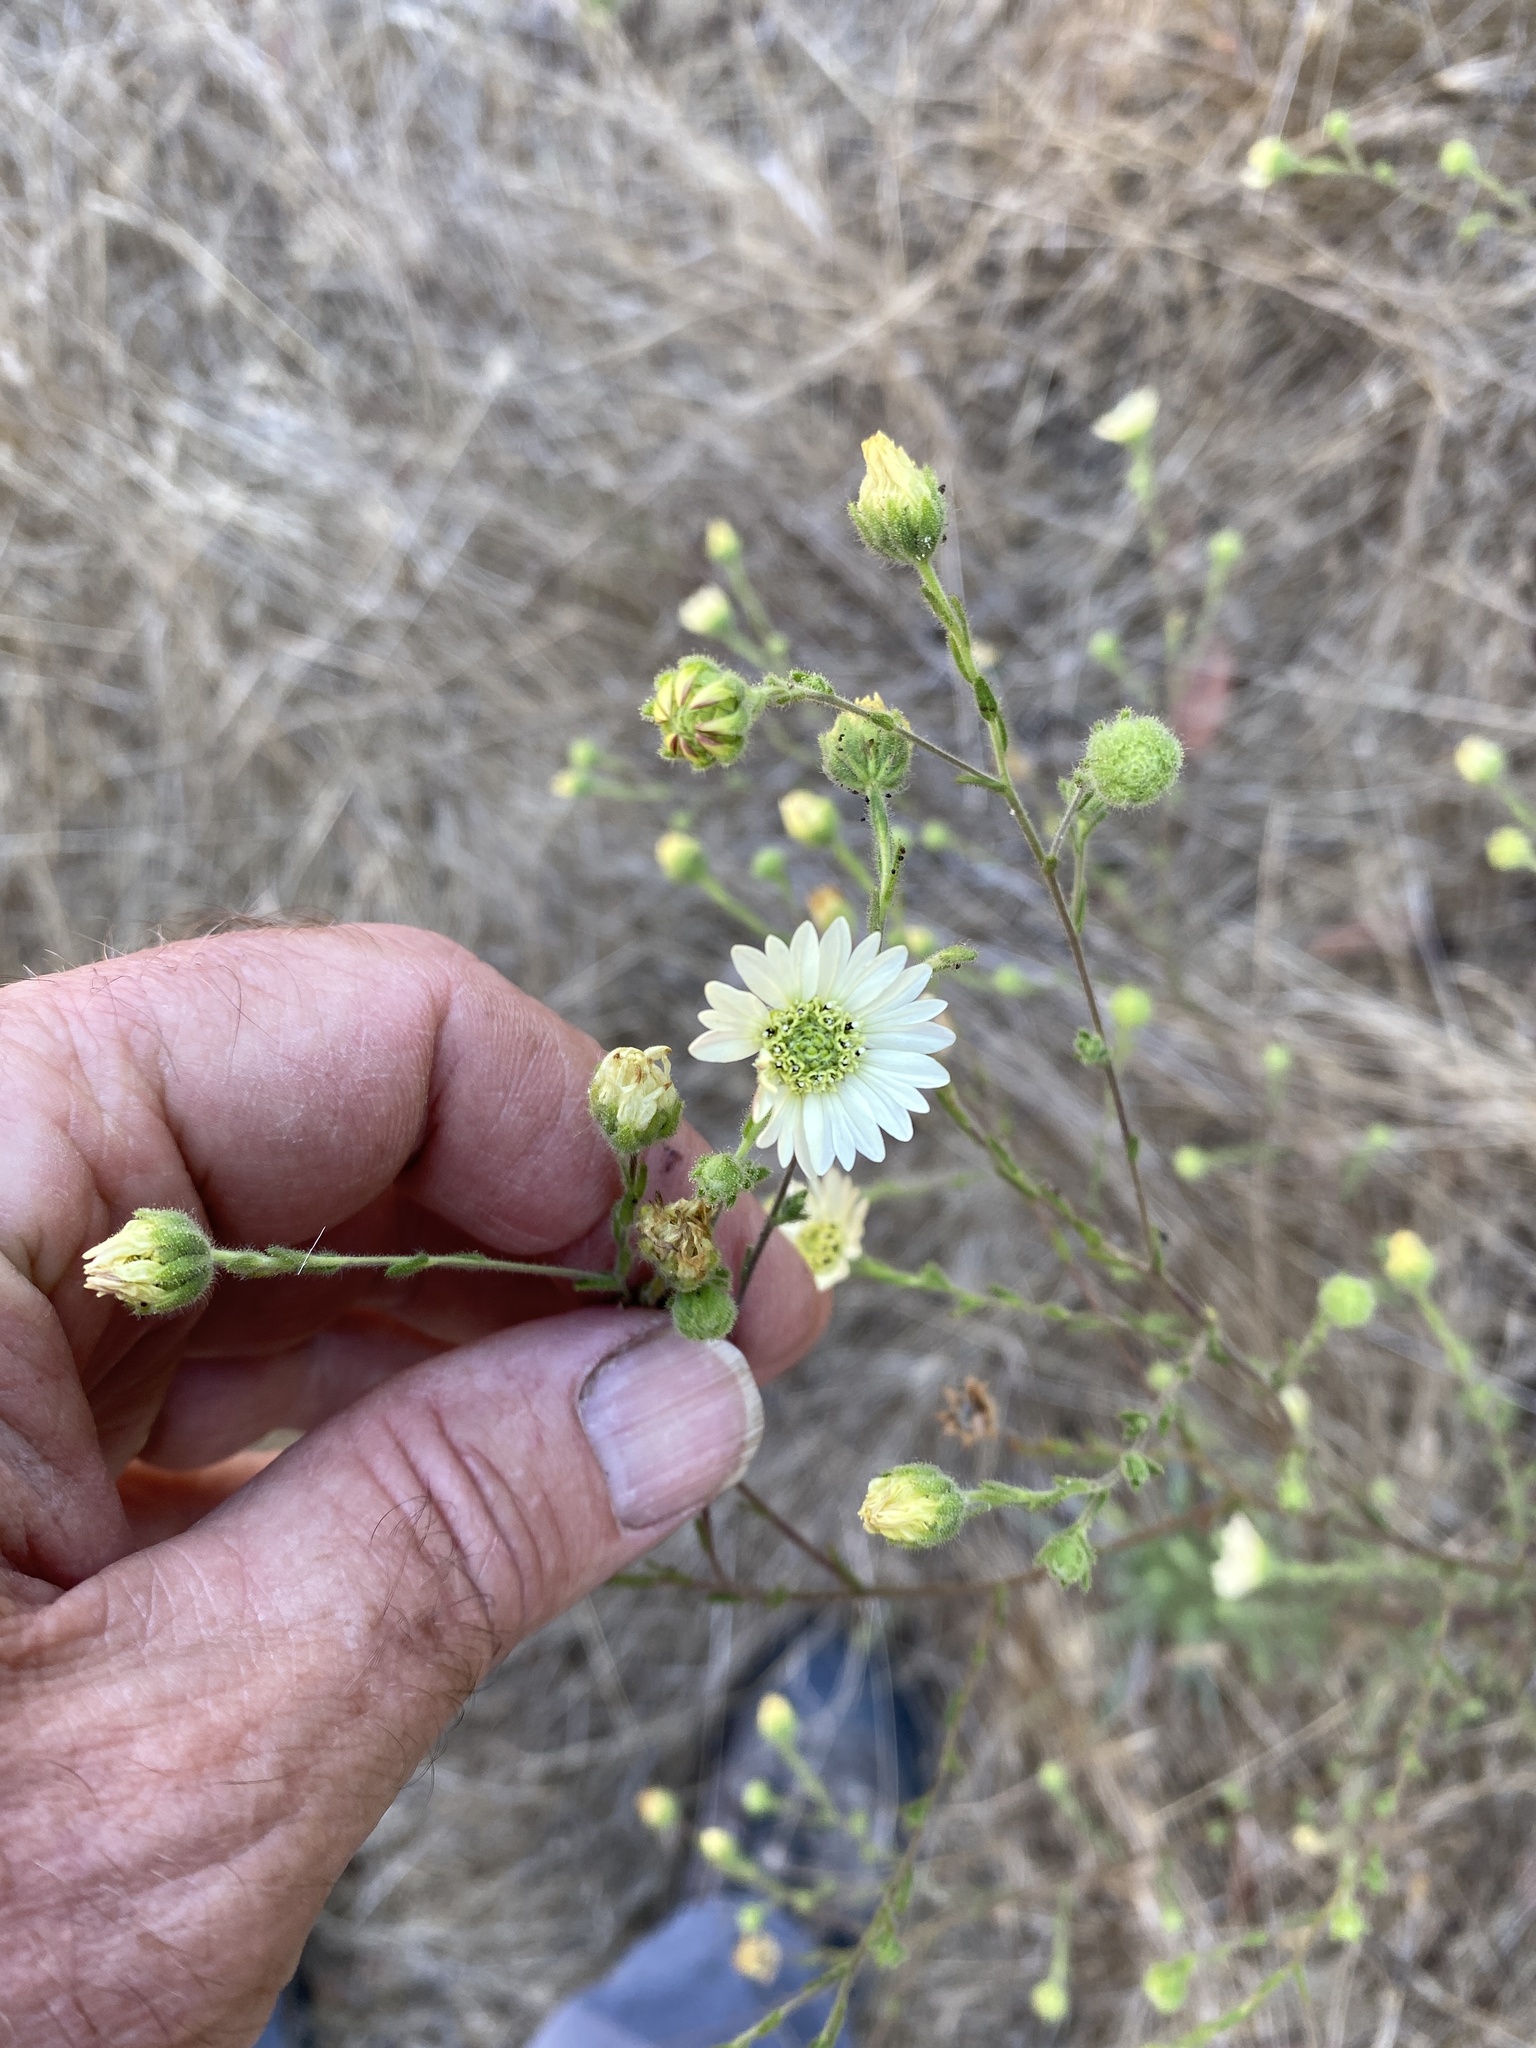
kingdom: Plantae
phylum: Tracheophyta
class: Magnoliopsida
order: Asterales
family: Asteraceae
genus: Hemizonia
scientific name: Hemizonia congesta
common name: Hayfield tarweed
